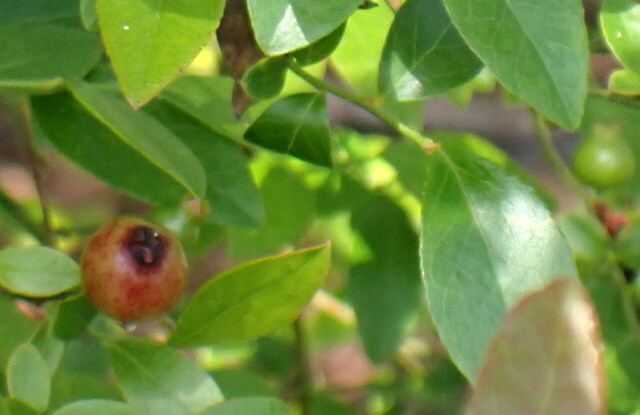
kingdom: Plantae
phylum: Tracheophyta
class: Magnoliopsida
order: Ericales
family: Ericaceae
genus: Vaccinium
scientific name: Vaccinium corymbosum
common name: Blueberry
